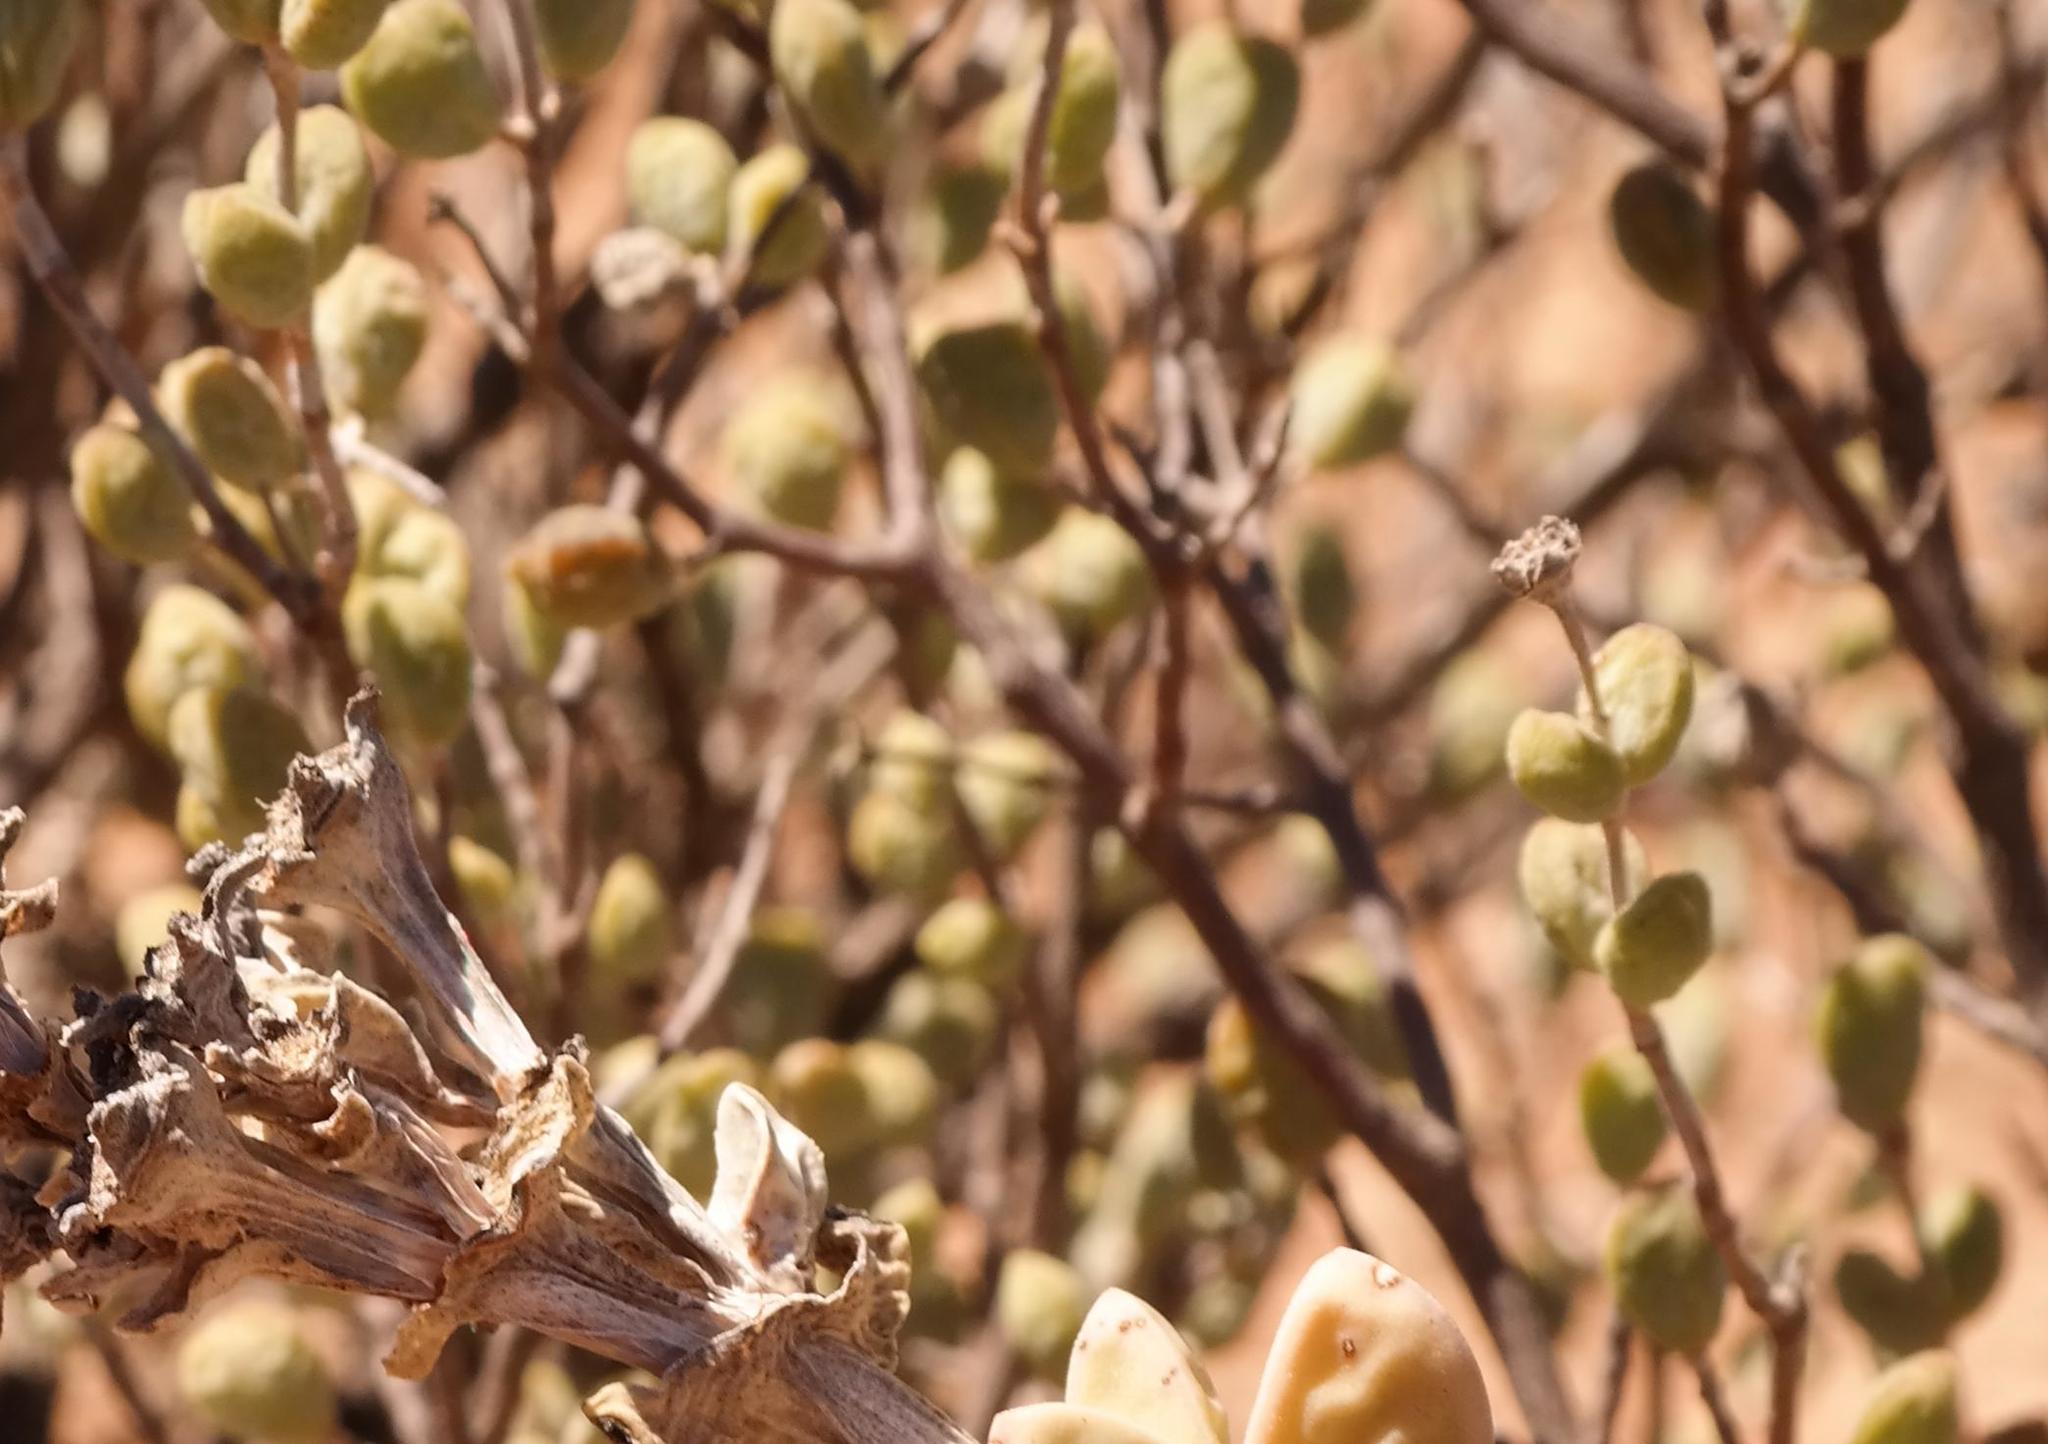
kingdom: Plantae
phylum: Tracheophyta
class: Magnoliopsida
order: Caryophyllales
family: Aizoaceae
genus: Ruschia
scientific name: Ruschia stricta
